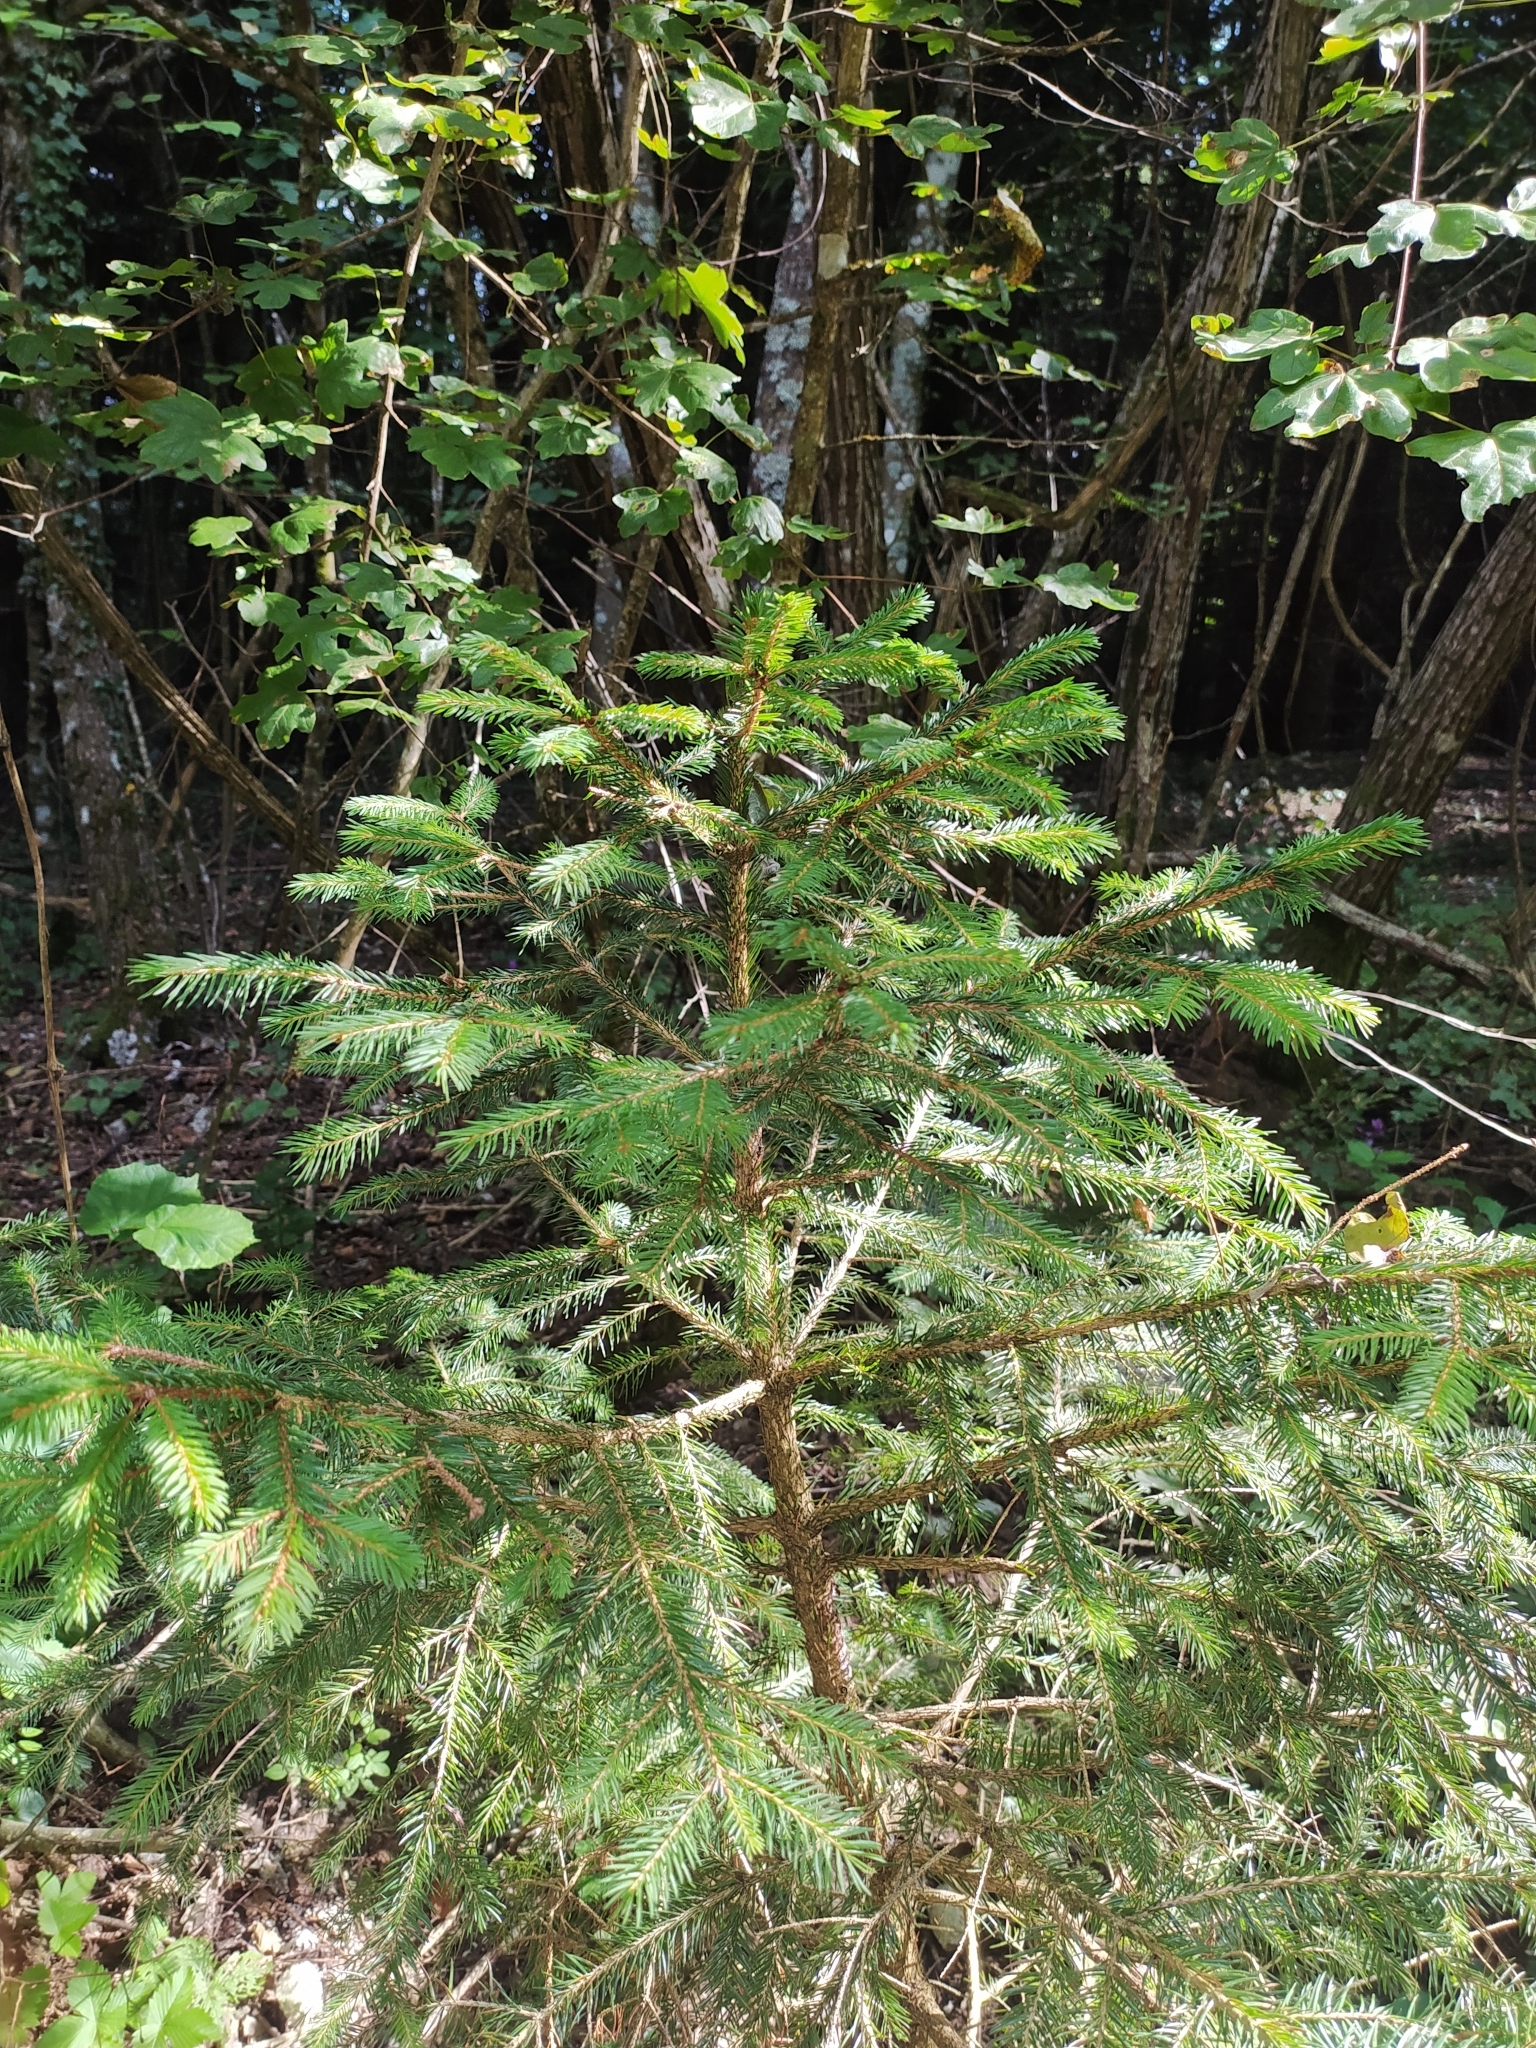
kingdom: Plantae
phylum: Tracheophyta
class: Pinopsida
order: Pinales
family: Pinaceae
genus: Picea
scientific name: Picea abies
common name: Norway spruce
